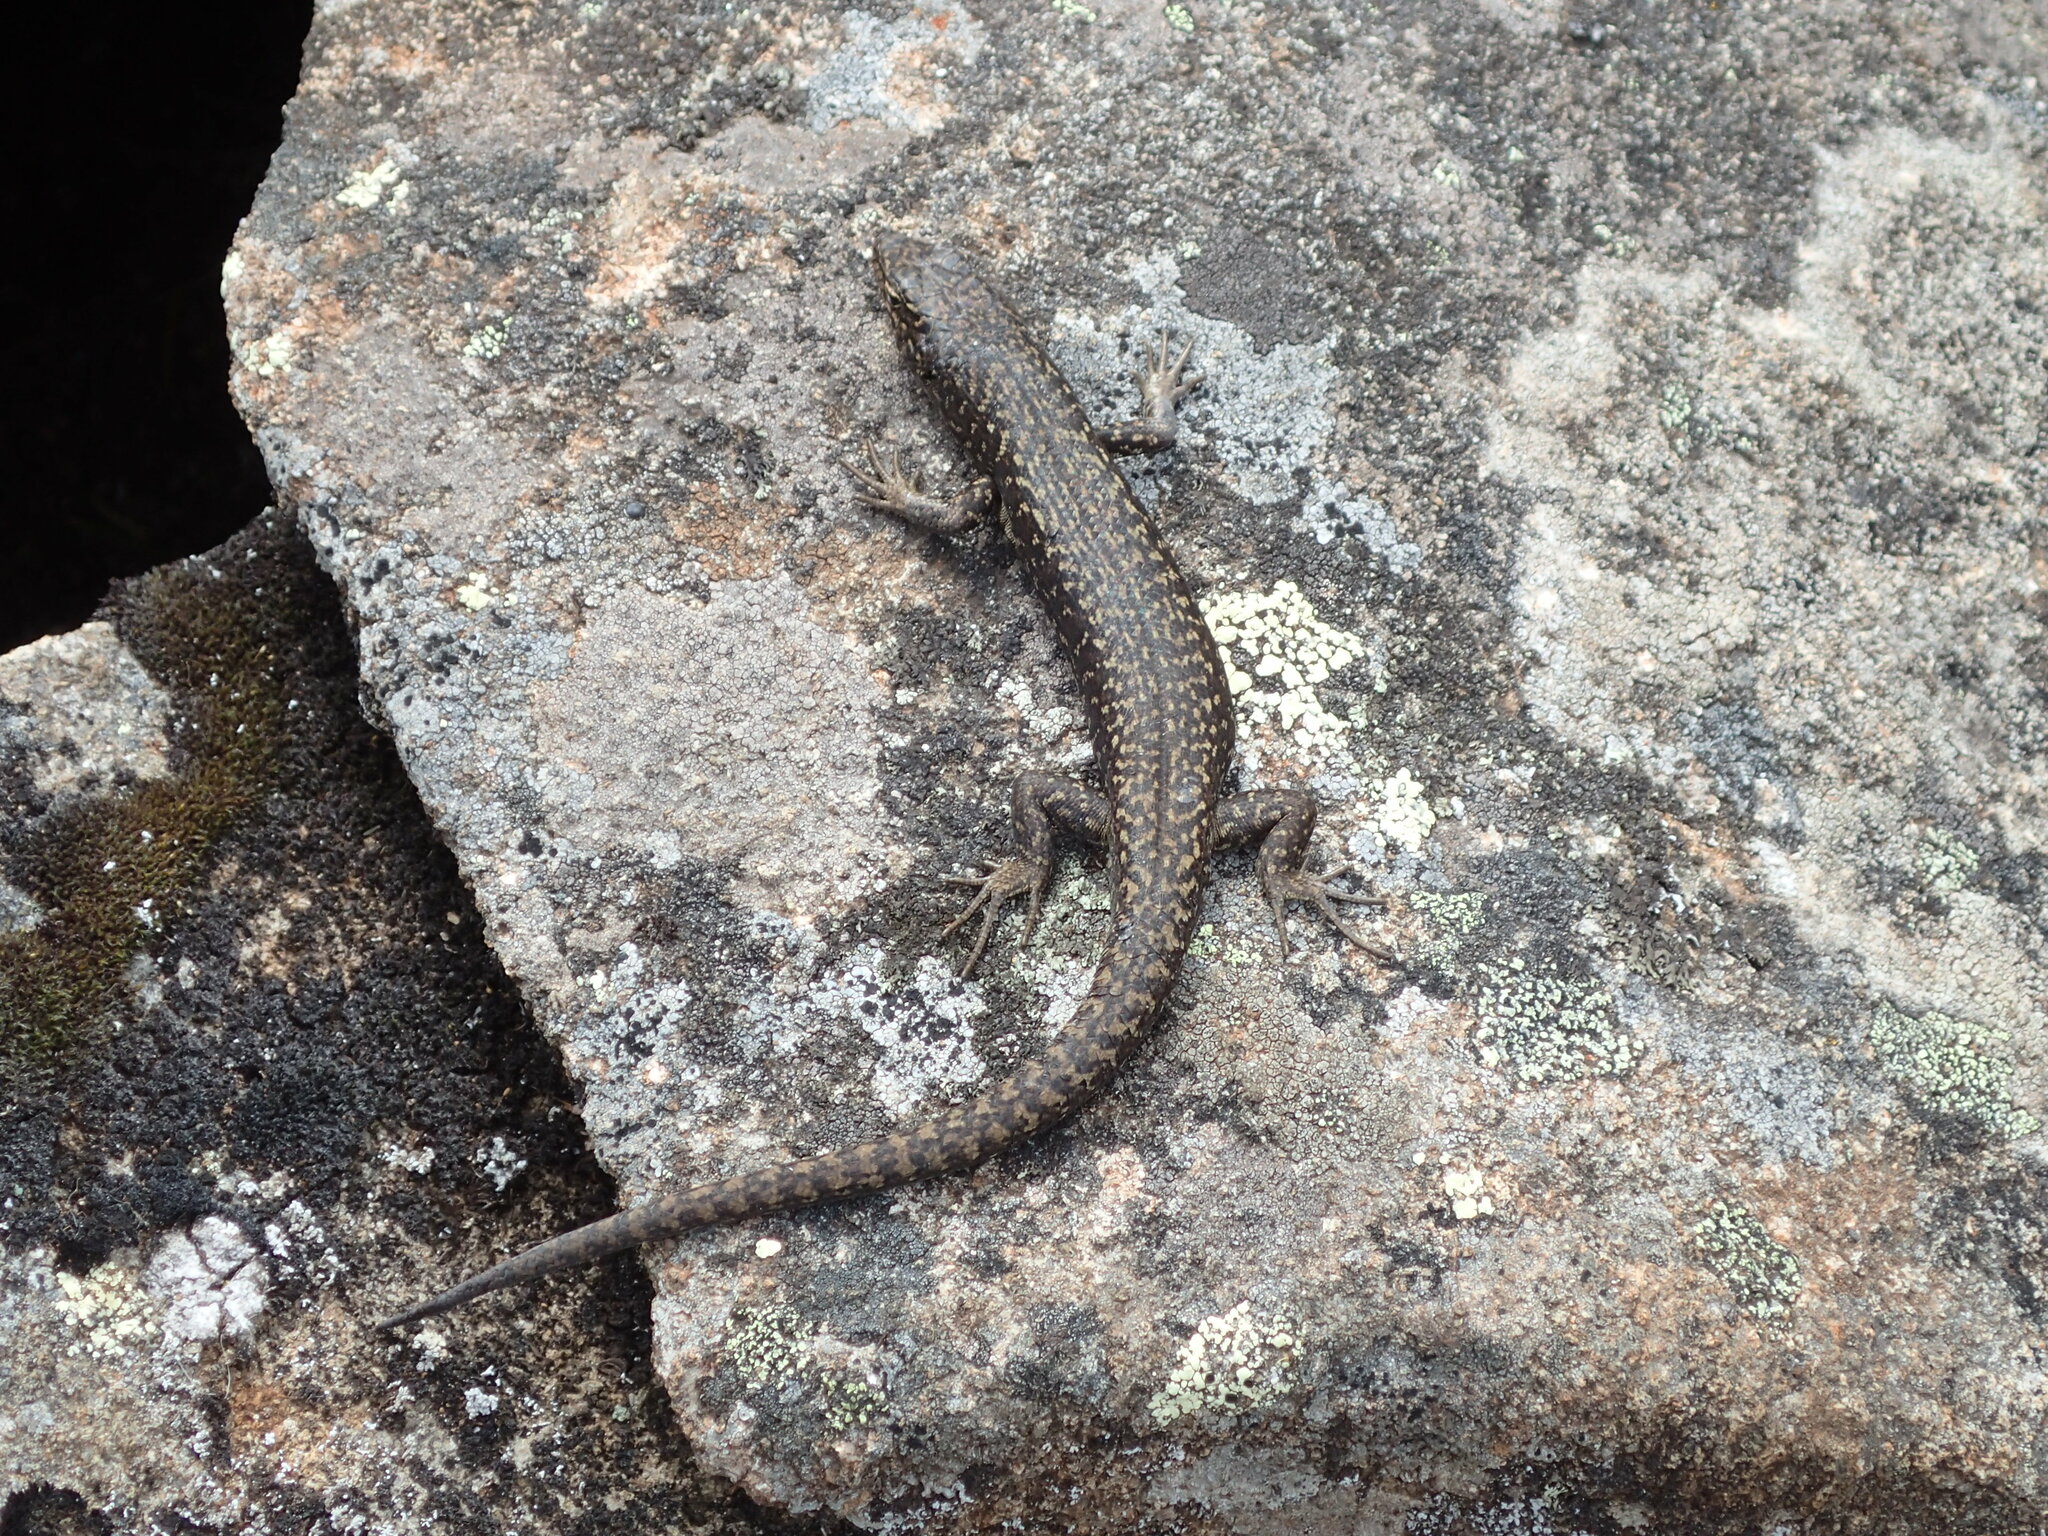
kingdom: Animalia
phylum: Chordata
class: Squamata
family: Scincidae
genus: Carinascincus
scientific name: Carinascincus ocellatus
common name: Ocellated cool-skink
